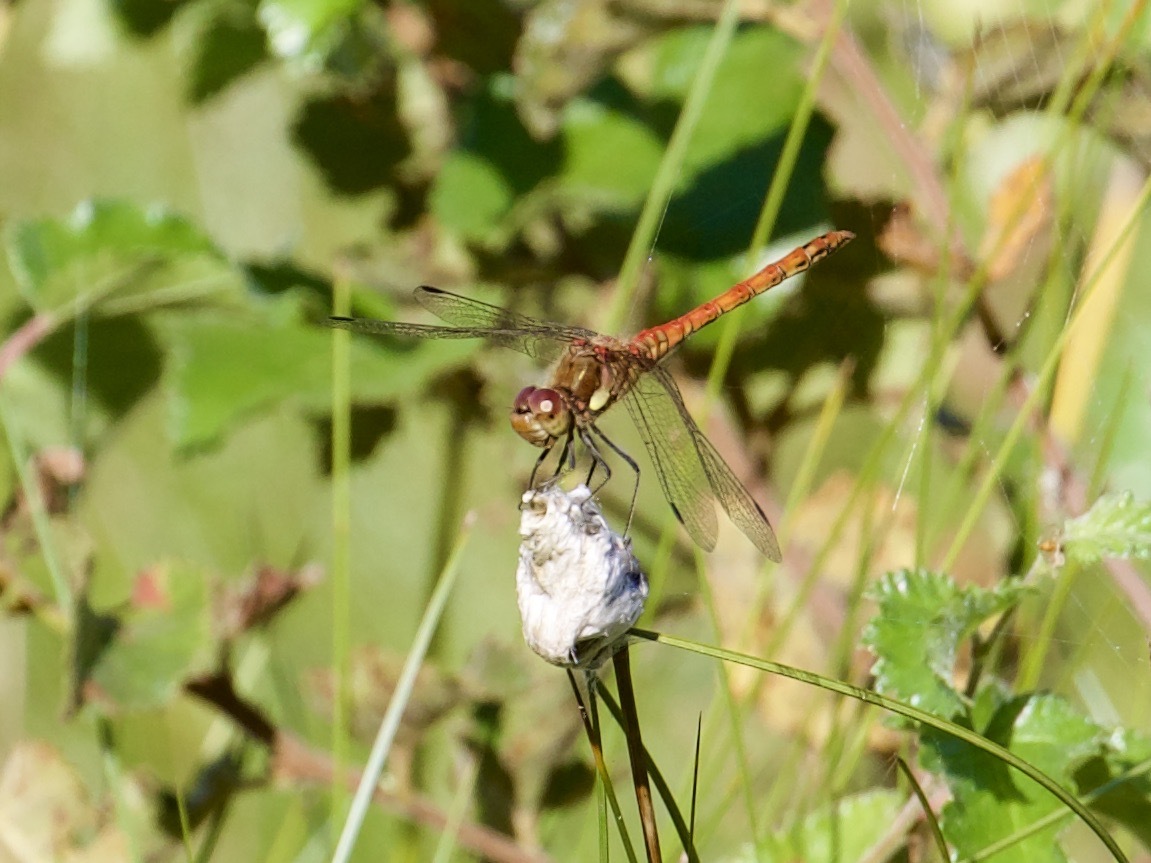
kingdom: Animalia
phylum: Arthropoda
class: Insecta
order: Odonata
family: Libellulidae
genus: Sympetrum
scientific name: Sympetrum striolatum
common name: Common darter
